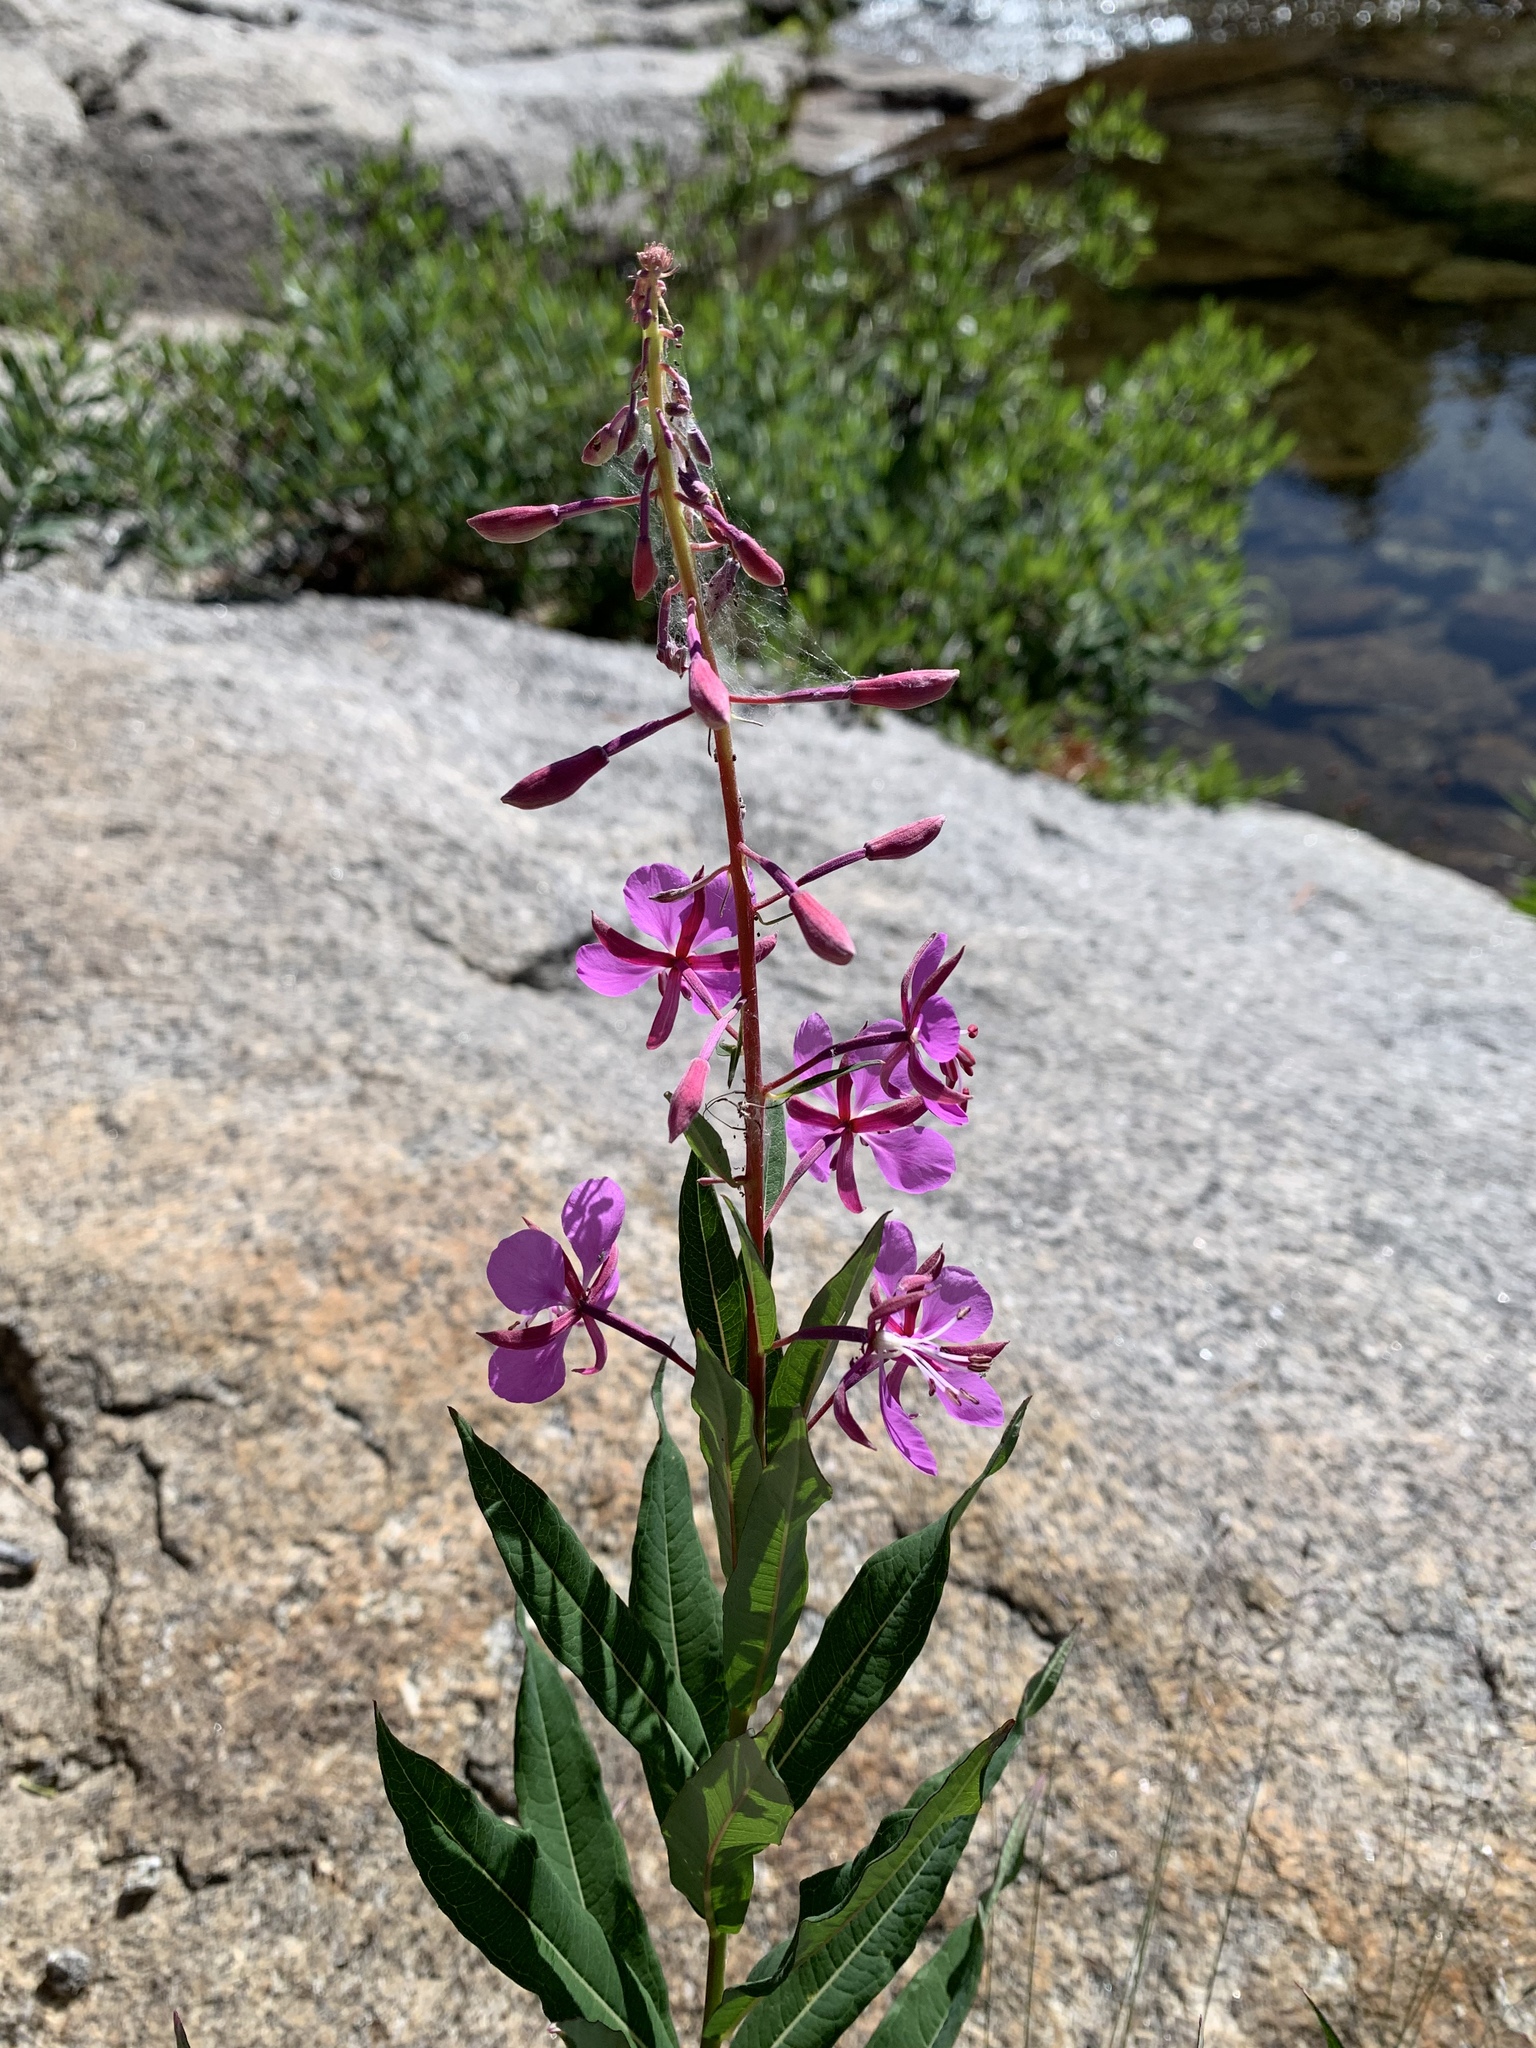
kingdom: Plantae
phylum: Tracheophyta
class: Magnoliopsida
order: Myrtales
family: Onagraceae
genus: Chamaenerion
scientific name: Chamaenerion angustifolium
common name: Fireweed
